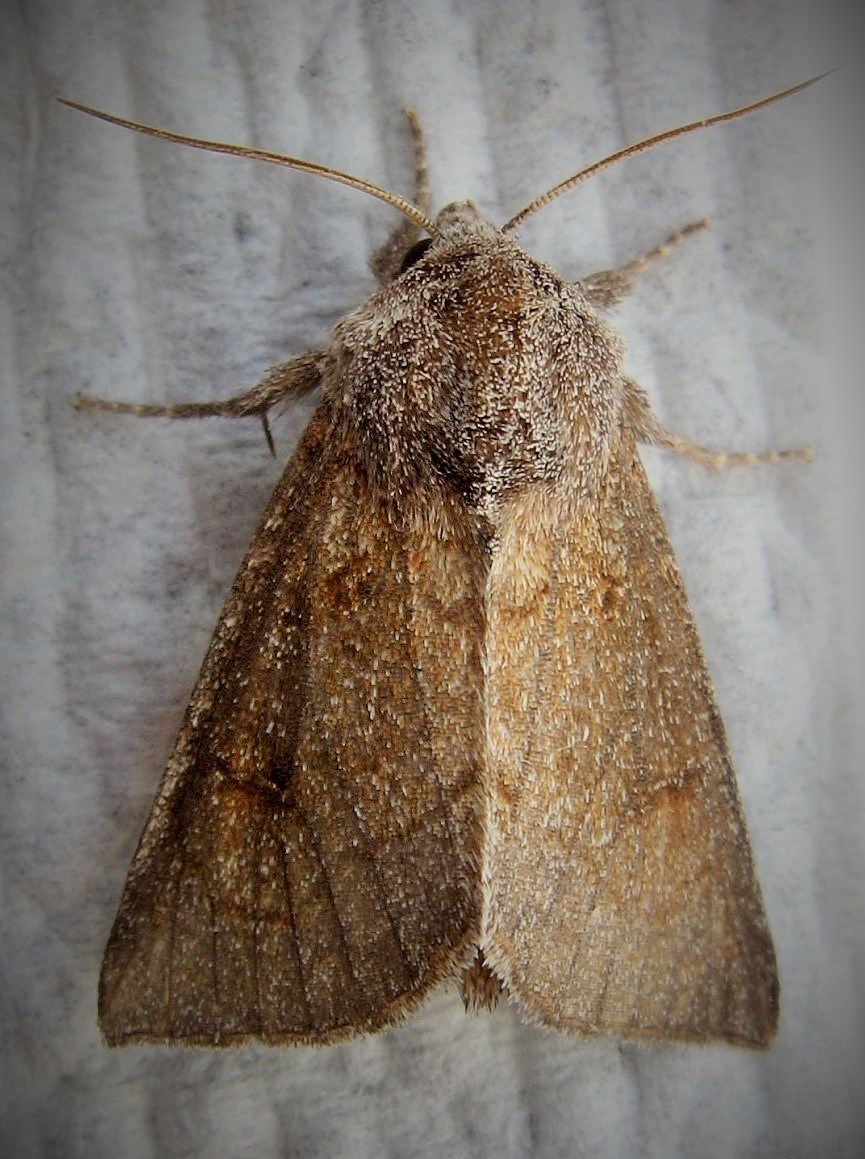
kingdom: Animalia
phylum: Arthropoda
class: Insecta
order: Lepidoptera
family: Noctuidae
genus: Papaipema
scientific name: Papaipema beeriana
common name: Blazing star stem borer
